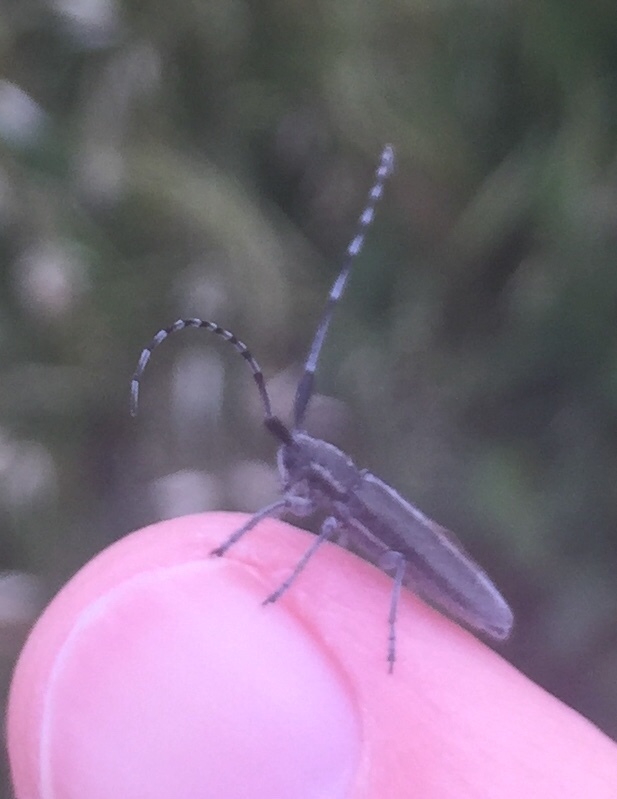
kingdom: Animalia
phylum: Arthropoda
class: Insecta
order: Coleoptera
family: Cerambycidae
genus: Agapanthia
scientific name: Agapanthia cardui
